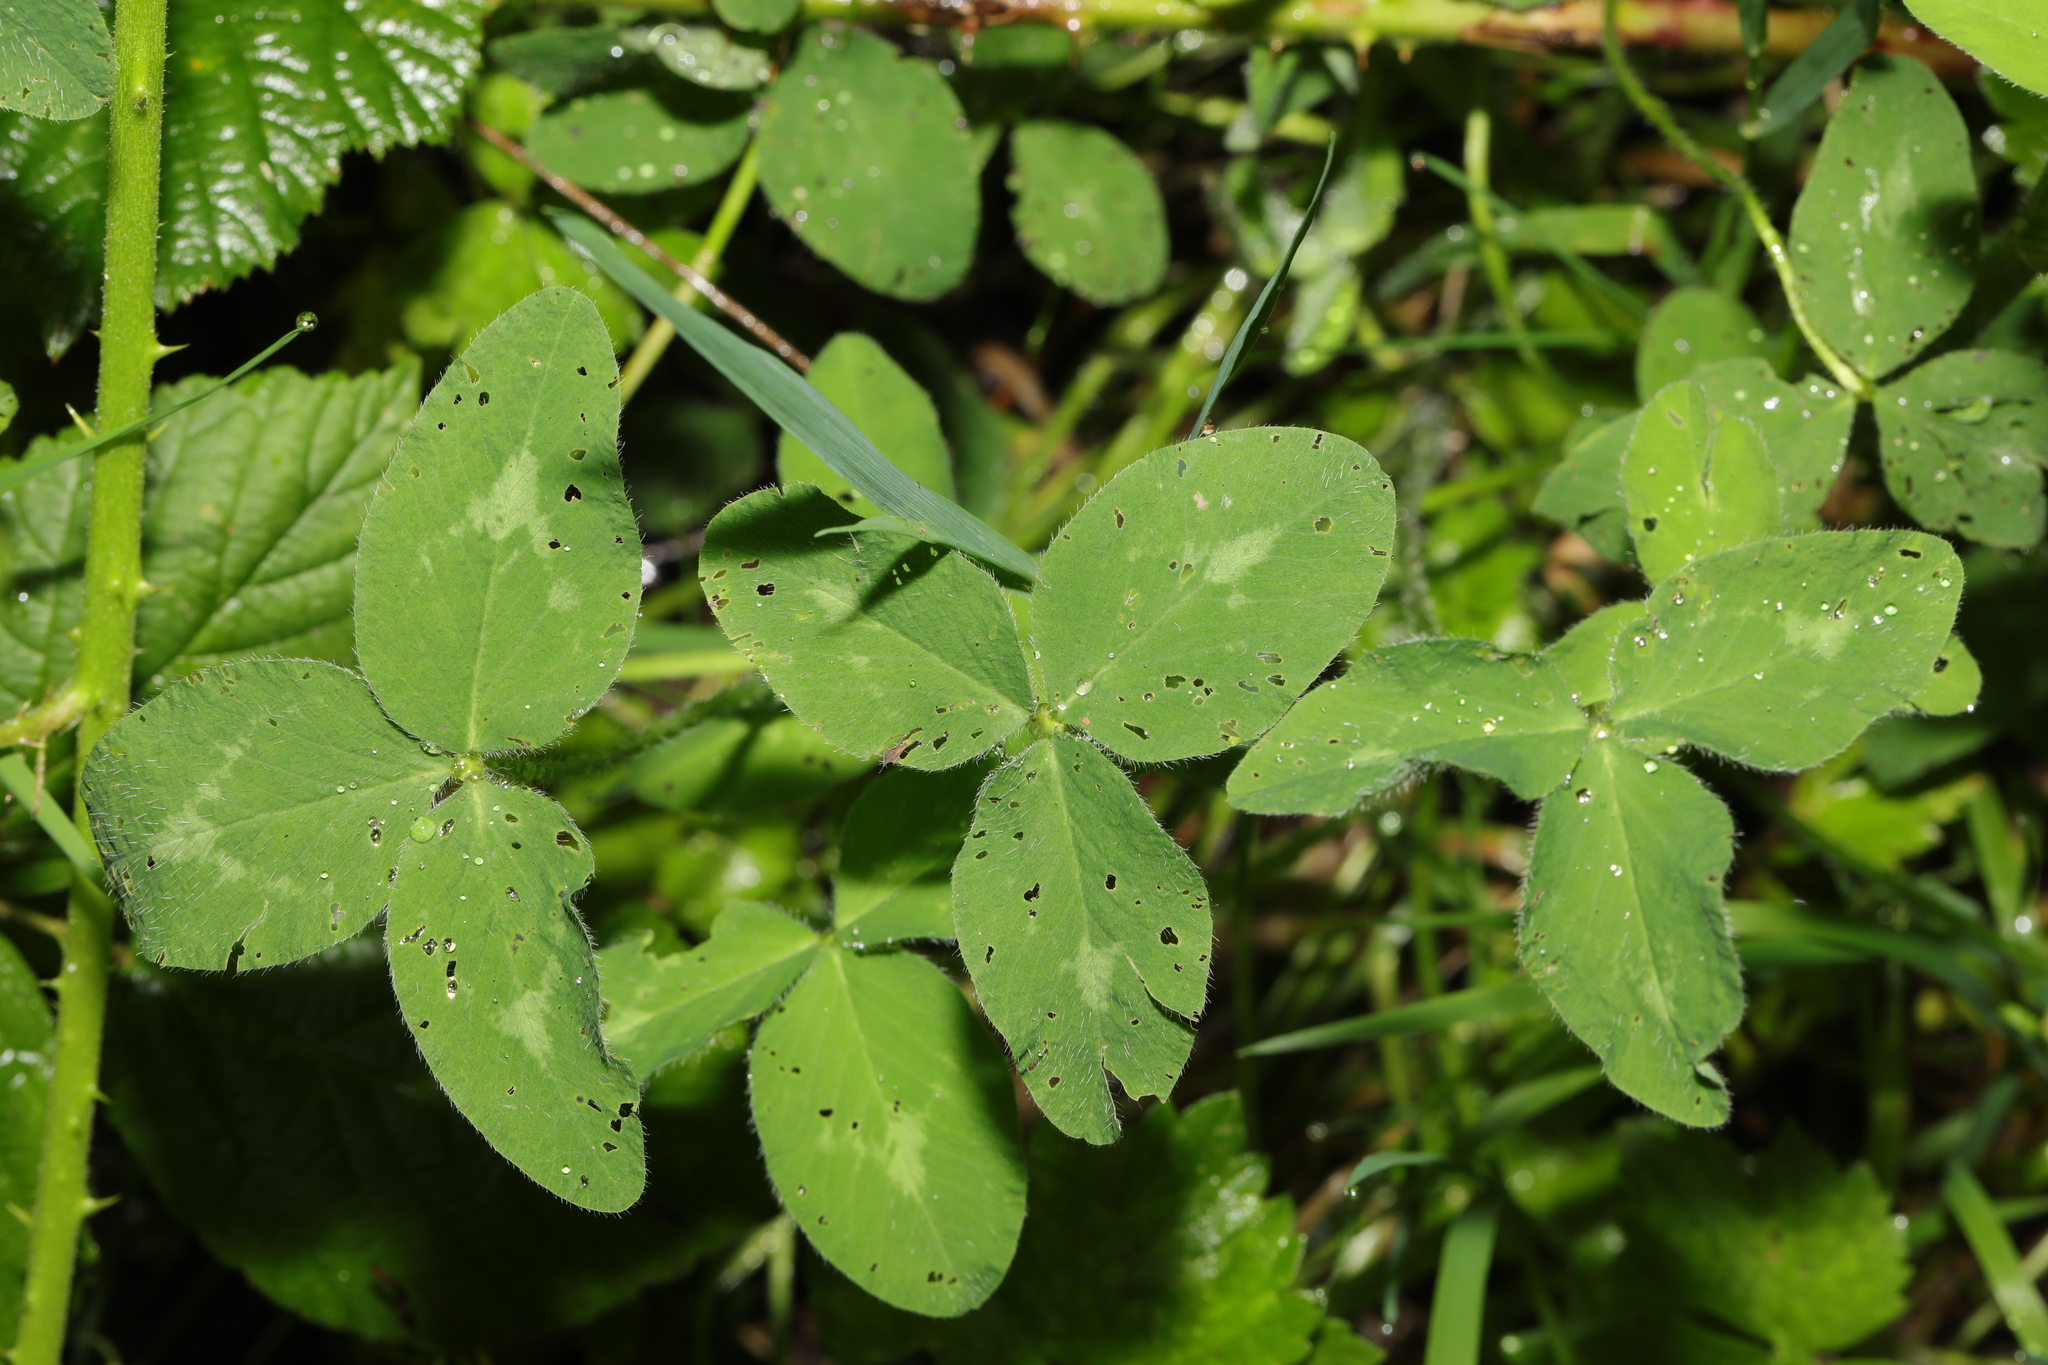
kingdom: Plantae
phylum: Tracheophyta
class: Magnoliopsida
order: Fabales
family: Fabaceae
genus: Trifolium
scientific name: Trifolium pratense
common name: Red clover
